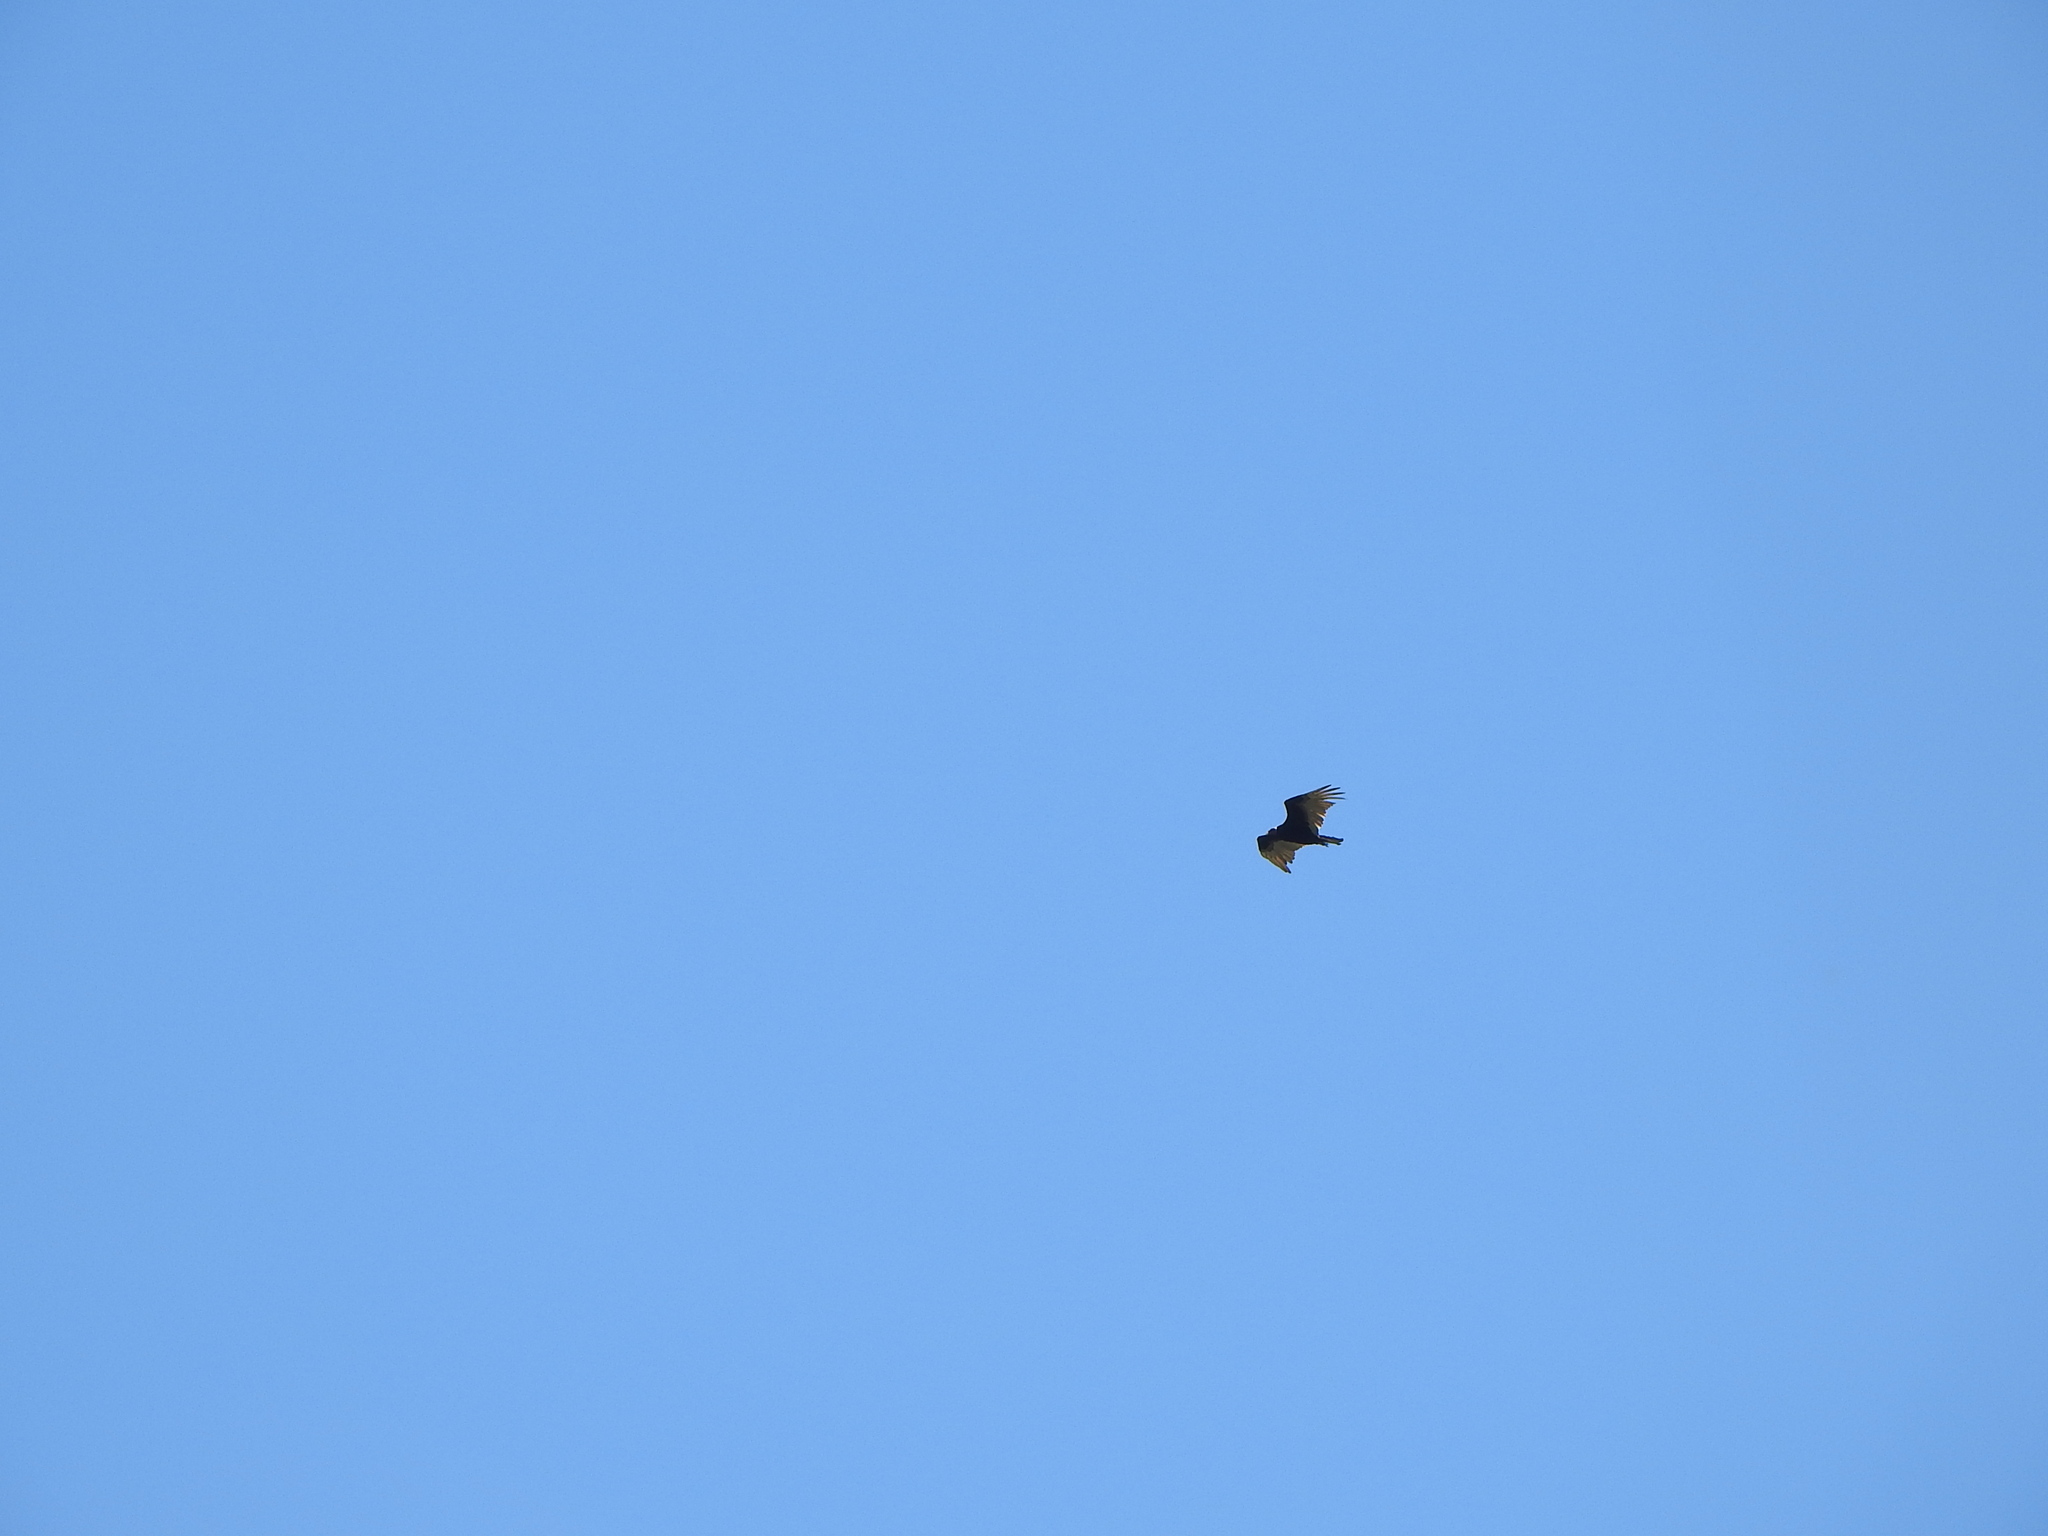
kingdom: Animalia
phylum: Chordata
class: Aves
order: Accipitriformes
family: Cathartidae
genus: Cathartes
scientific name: Cathartes aura
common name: Turkey vulture
